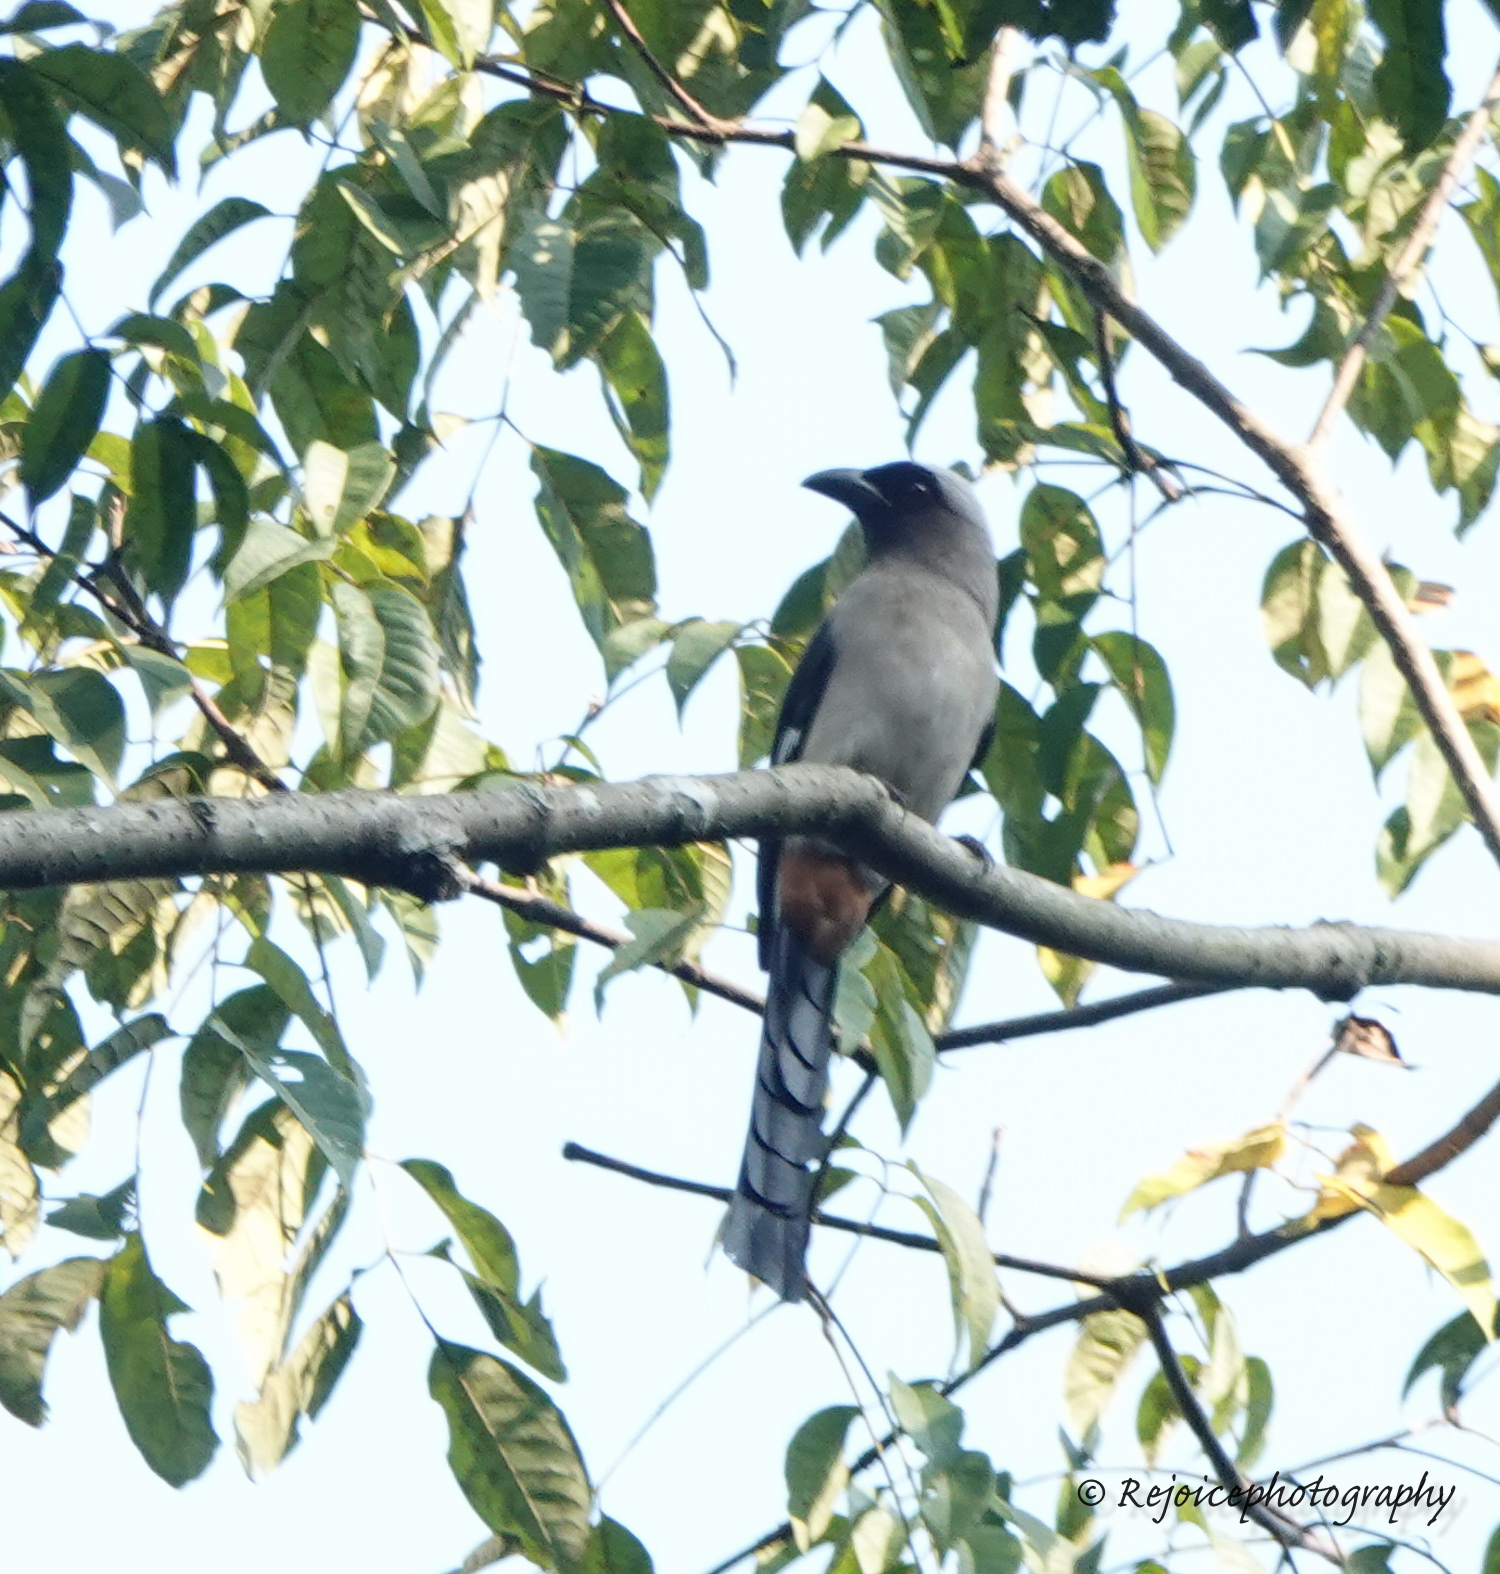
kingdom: Animalia
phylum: Chordata
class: Aves
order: Passeriformes
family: Corvidae
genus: Dendrocitta
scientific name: Dendrocitta formosae
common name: Grey treepie
